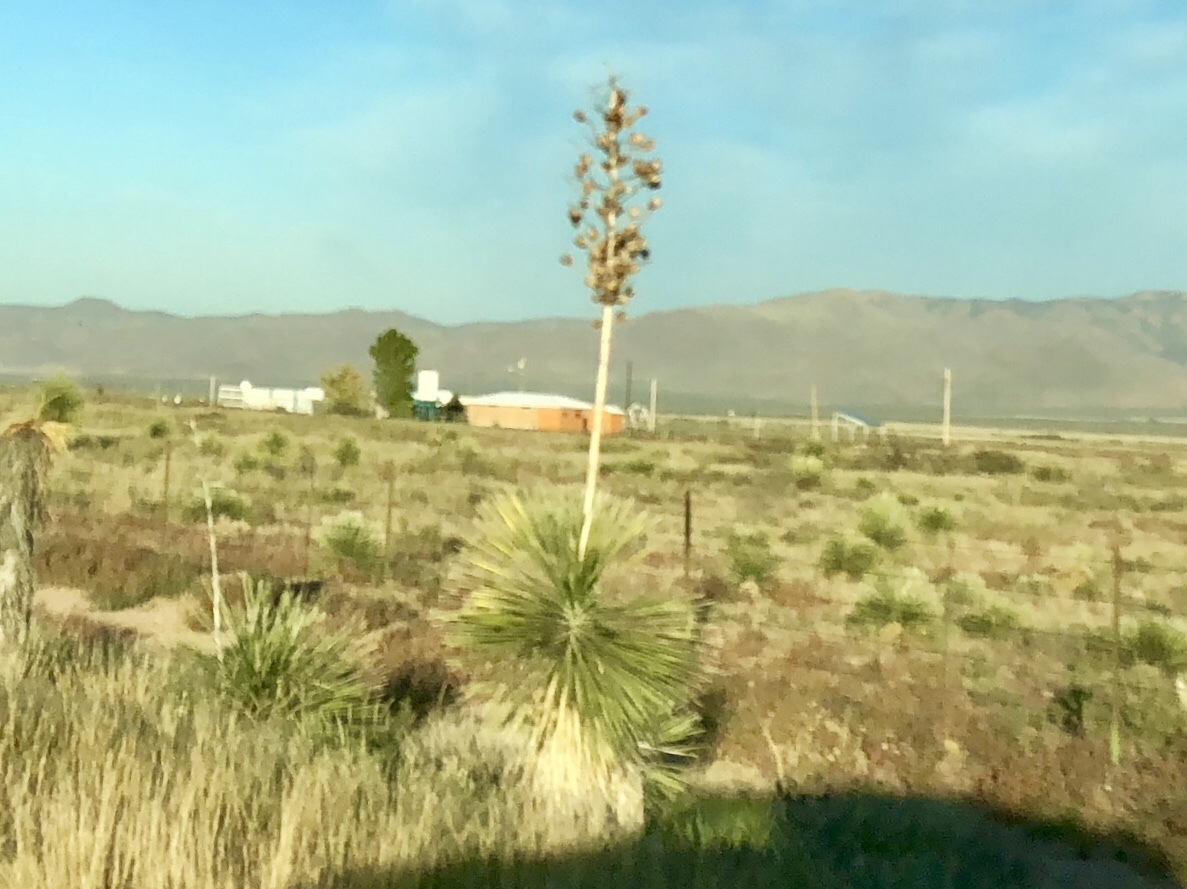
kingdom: Plantae
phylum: Tracheophyta
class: Liliopsida
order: Asparagales
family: Asparagaceae
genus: Yucca
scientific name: Yucca elata
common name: Palmella
